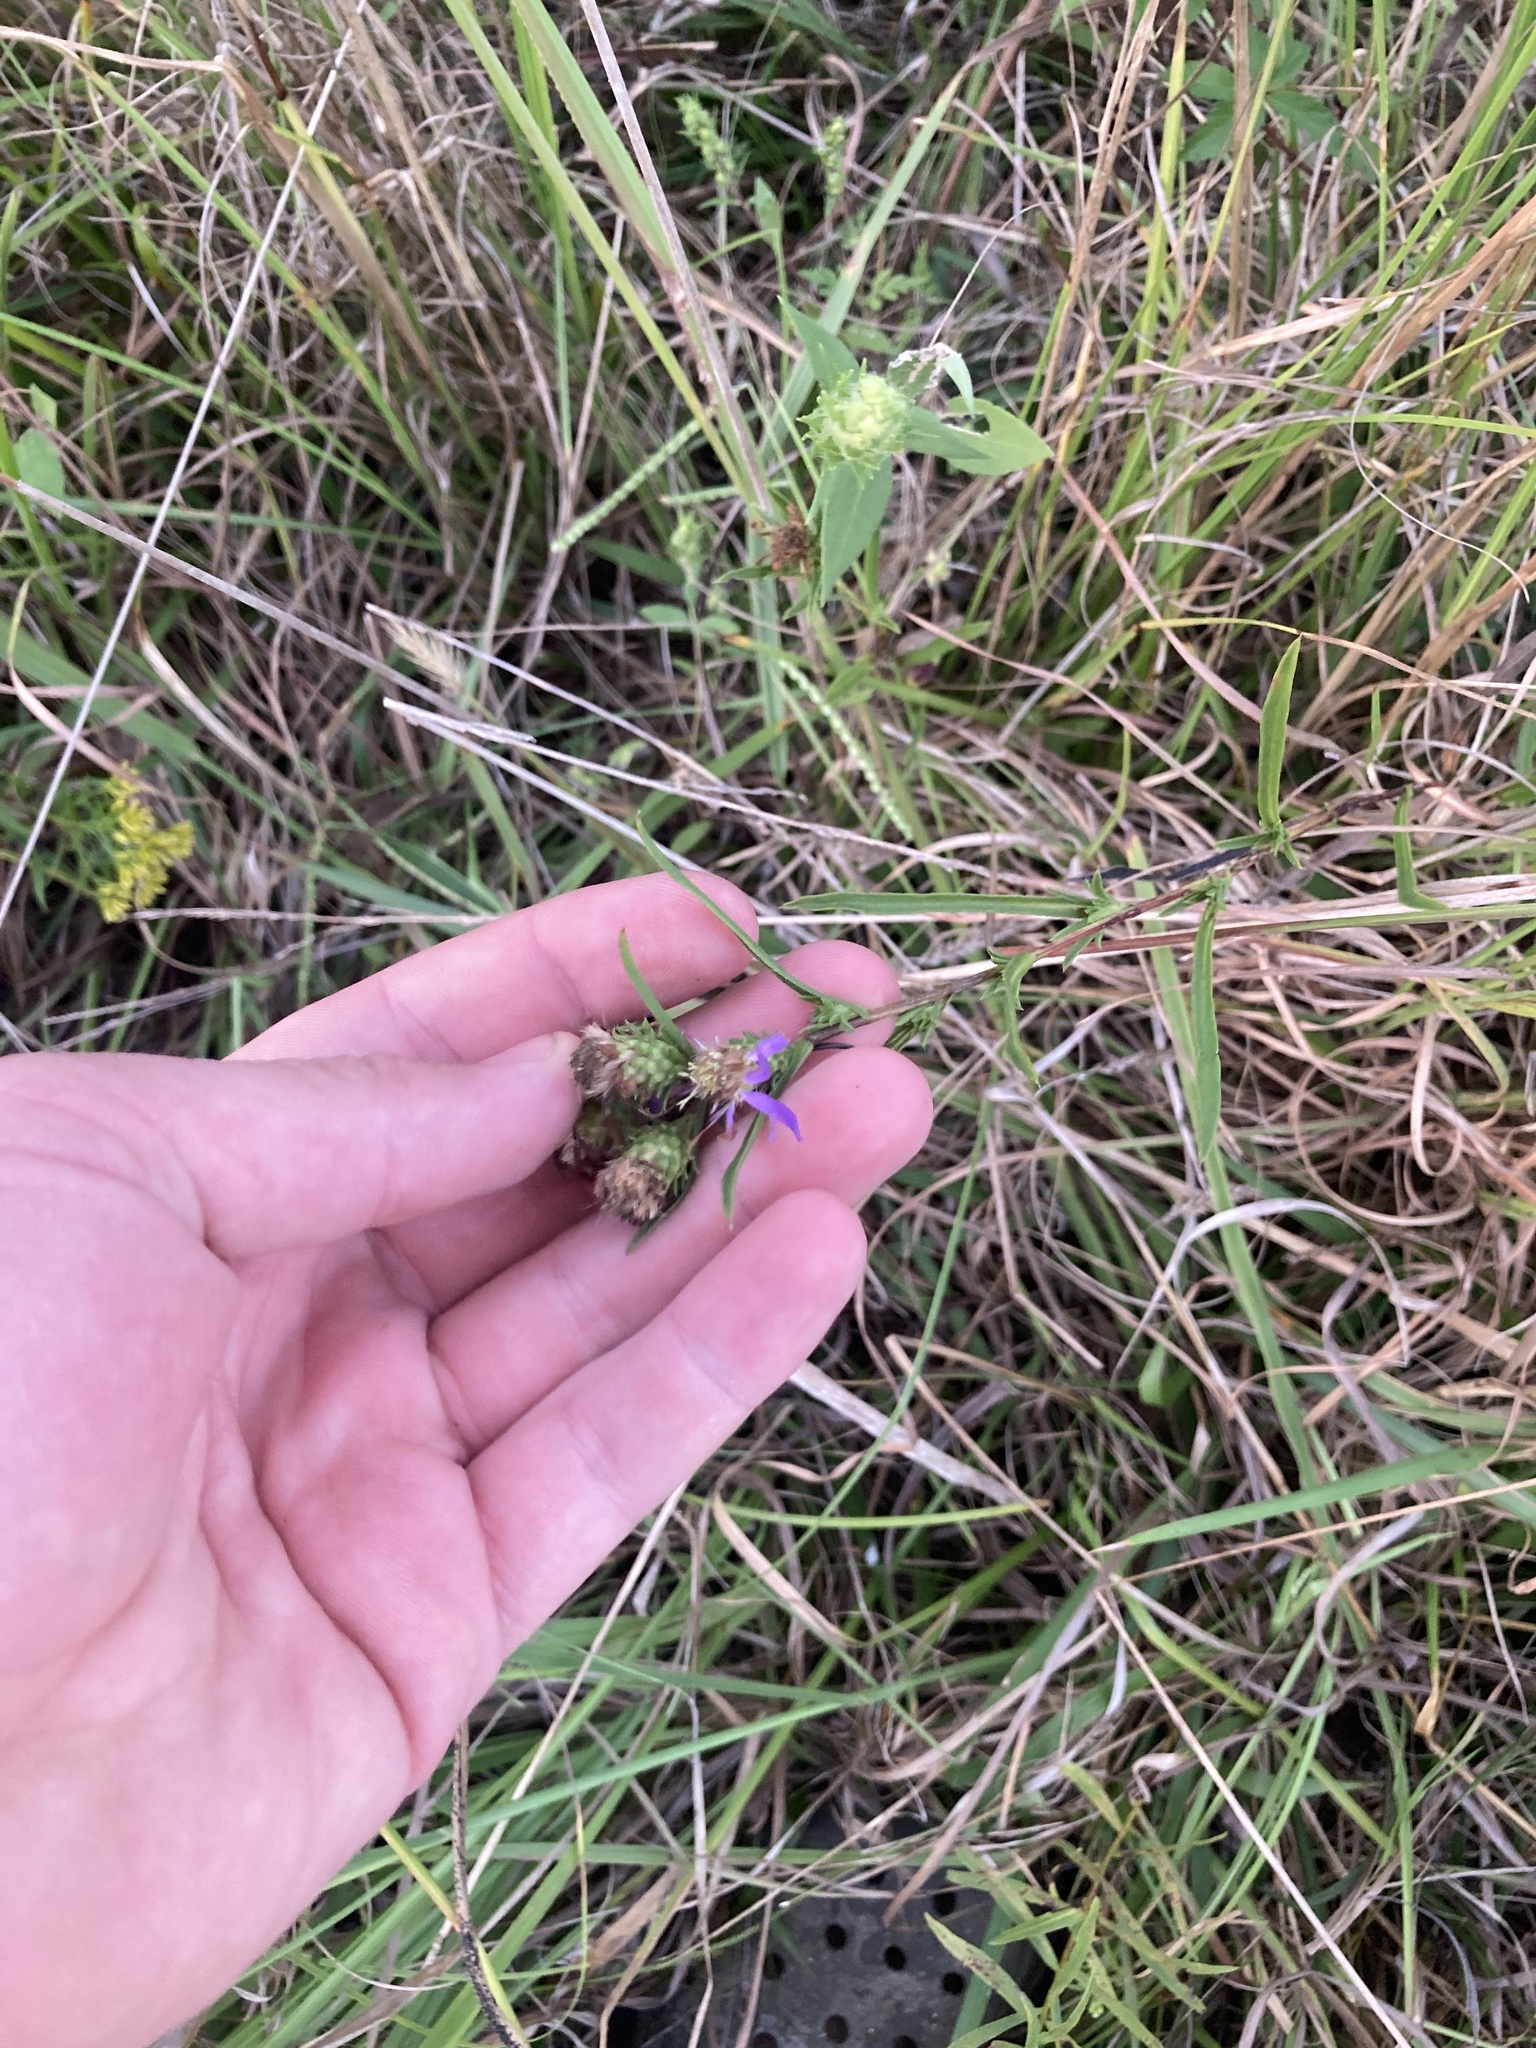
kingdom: Plantae
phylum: Tracheophyta
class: Magnoliopsida
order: Asterales
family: Asteraceae
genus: Eurybia
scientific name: Eurybia hemispherica
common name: Showy aster
